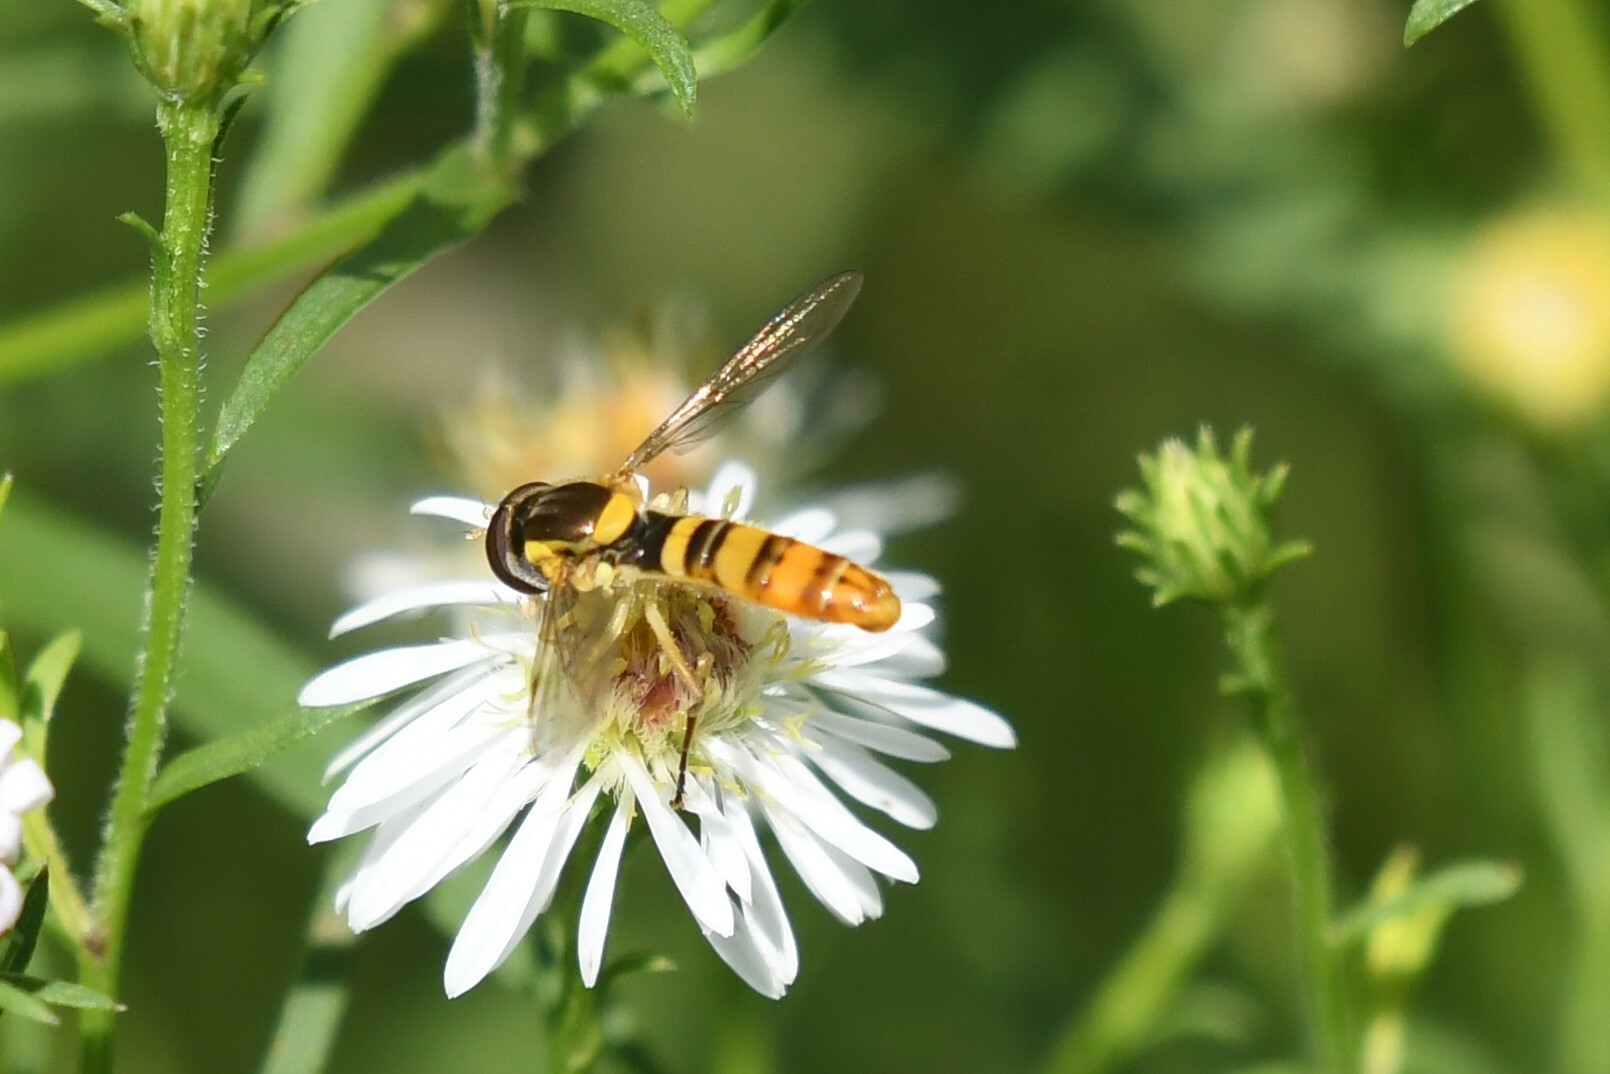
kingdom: Animalia
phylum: Arthropoda
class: Insecta
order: Diptera
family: Syrphidae
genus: Sphaerophoria
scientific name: Sphaerophoria
